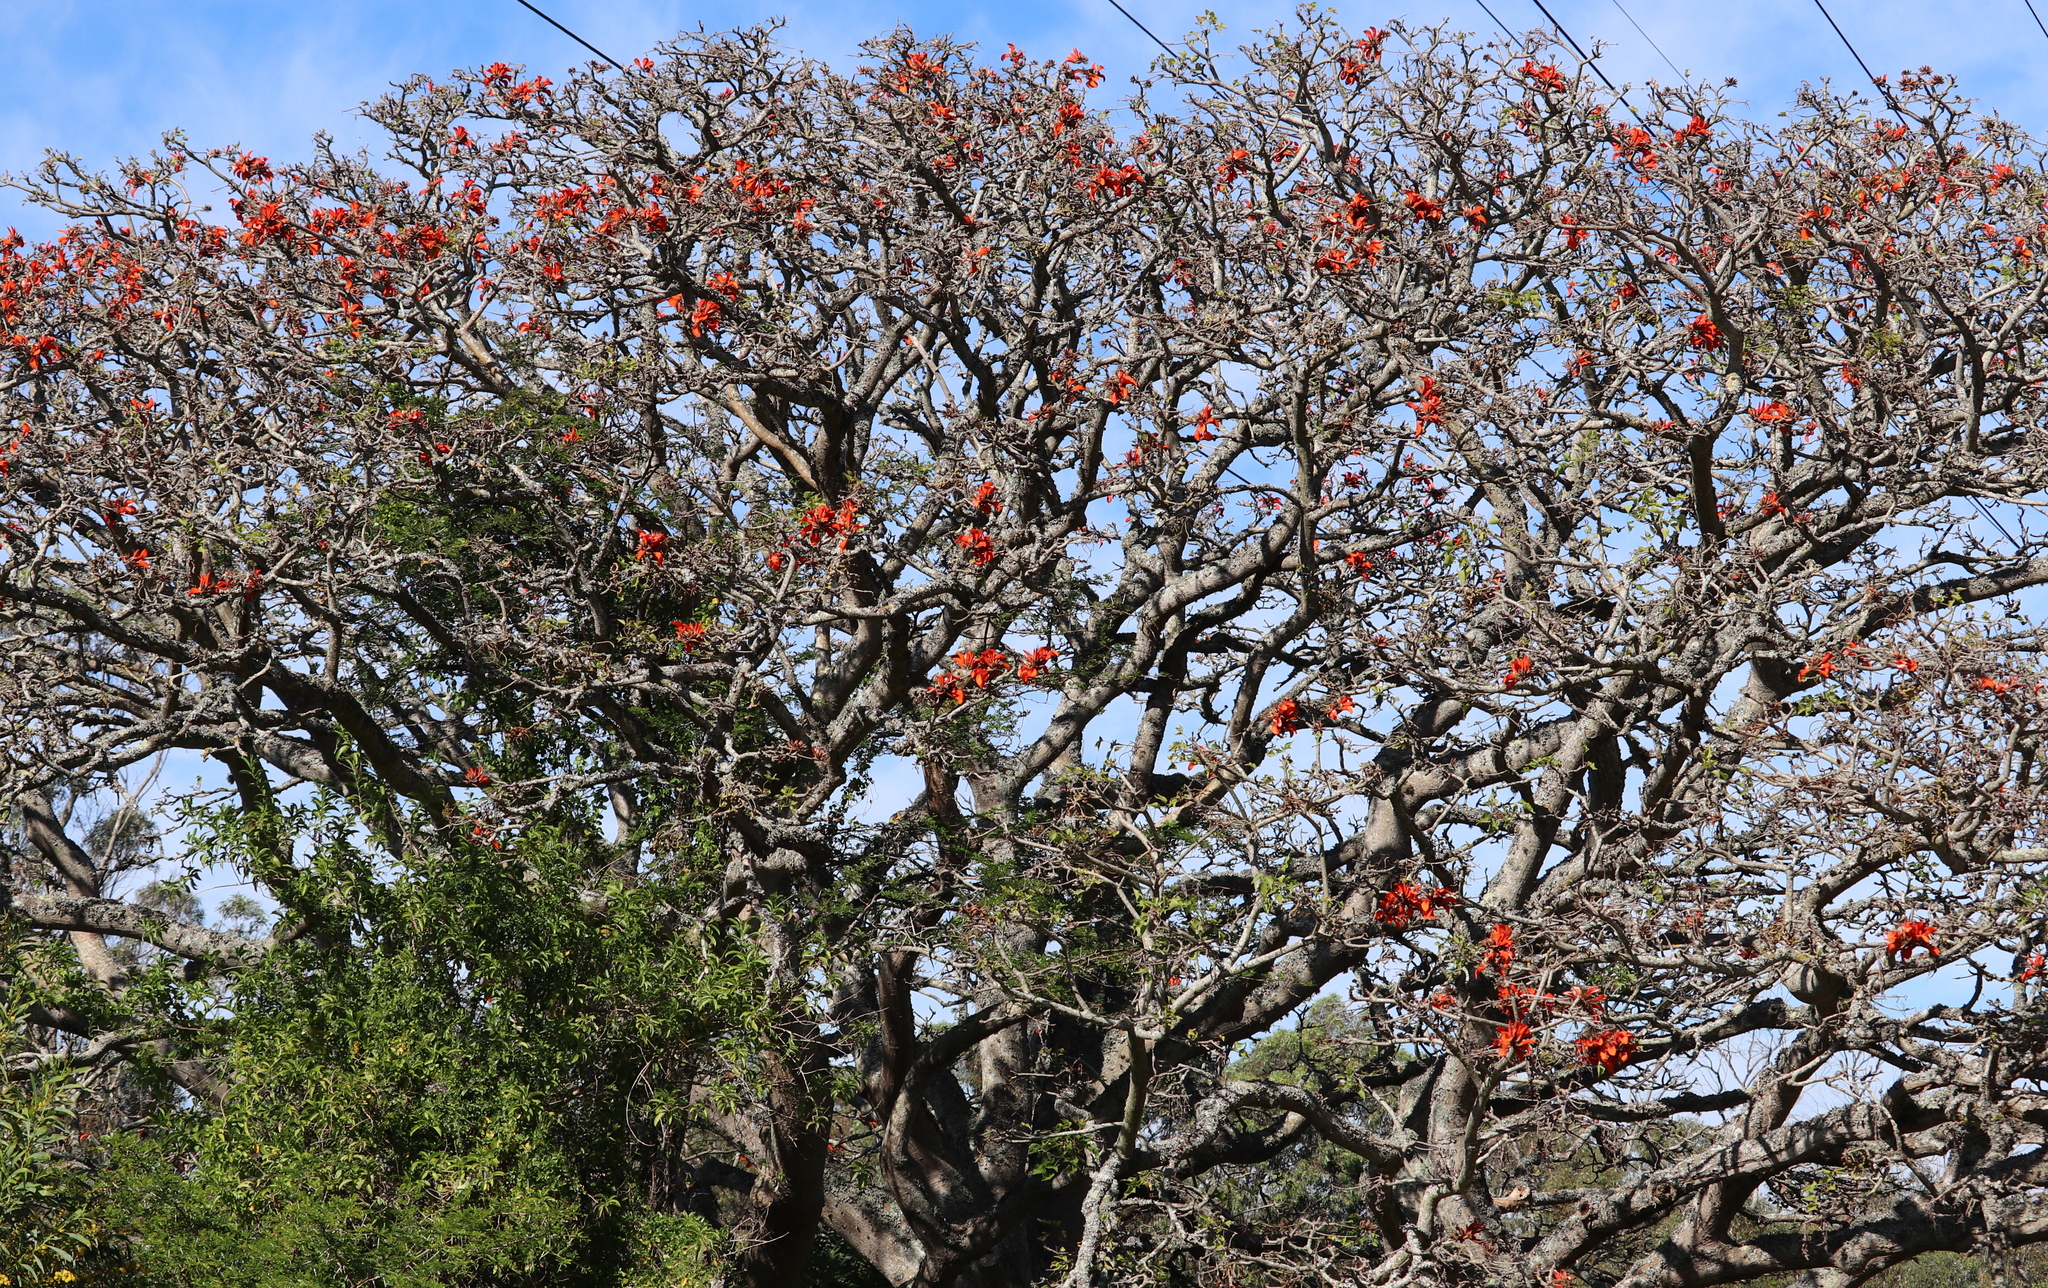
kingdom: Plantae
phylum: Tracheophyta
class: Magnoliopsida
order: Fabales
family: Fabaceae
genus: Erythrina
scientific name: Erythrina caffra
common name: Coast coral tree
